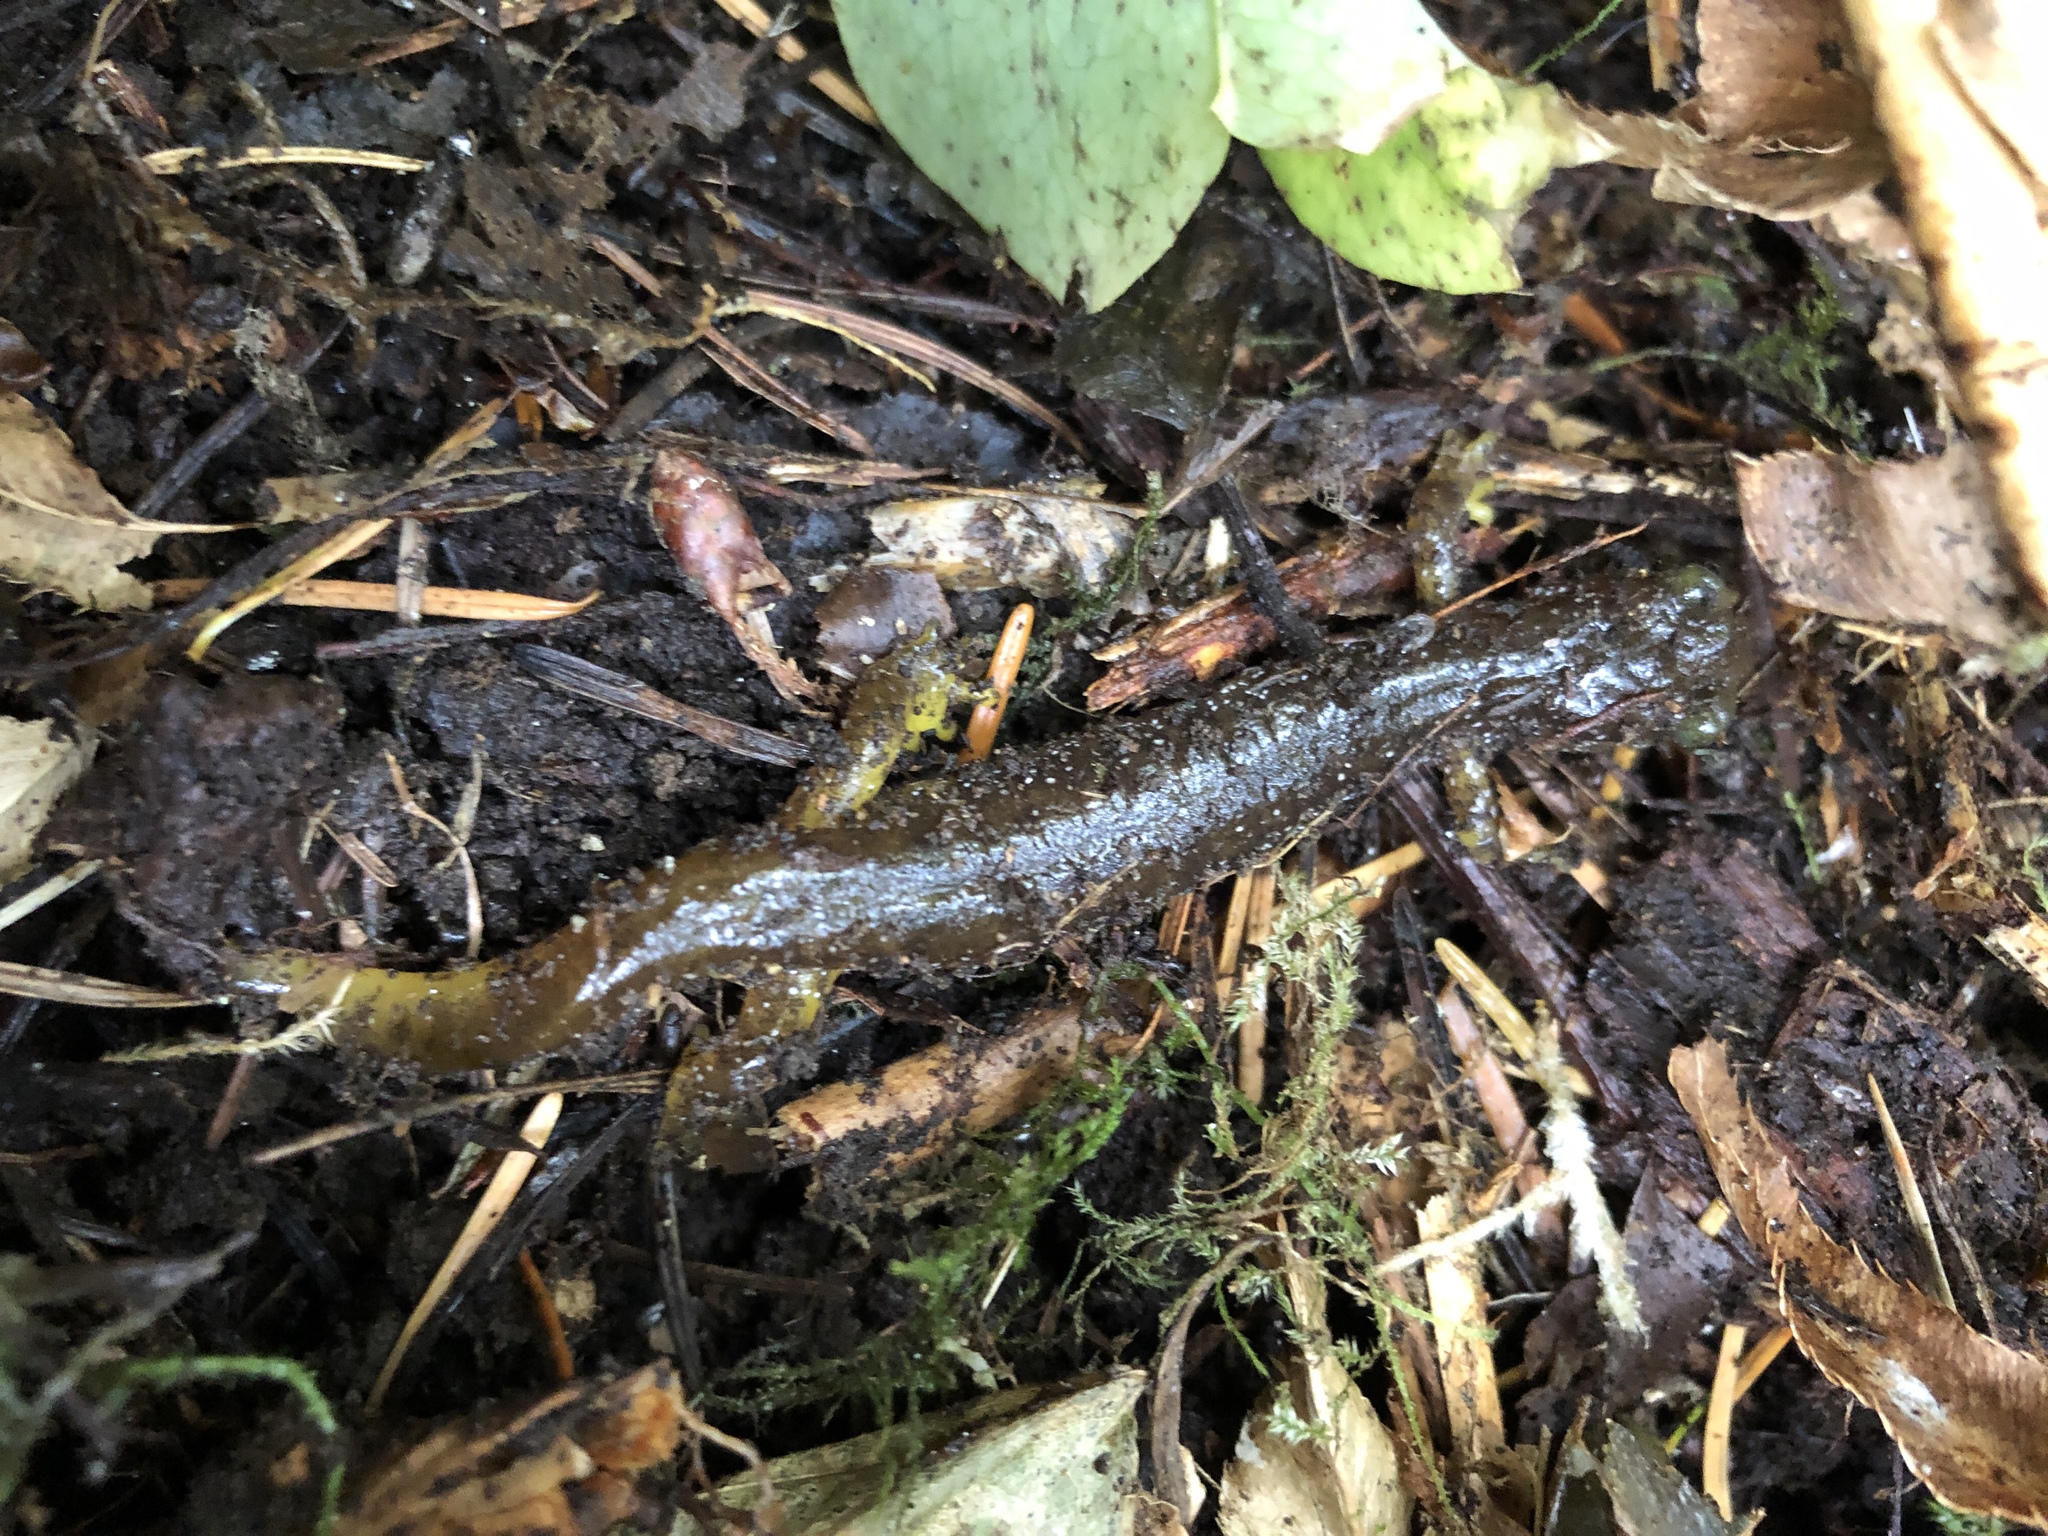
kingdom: Animalia
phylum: Chordata
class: Amphibia
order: Caudata
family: Rhyacotritonidae
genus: Rhyacotriton
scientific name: Rhyacotriton variegatus
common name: Southern torrent salamander
